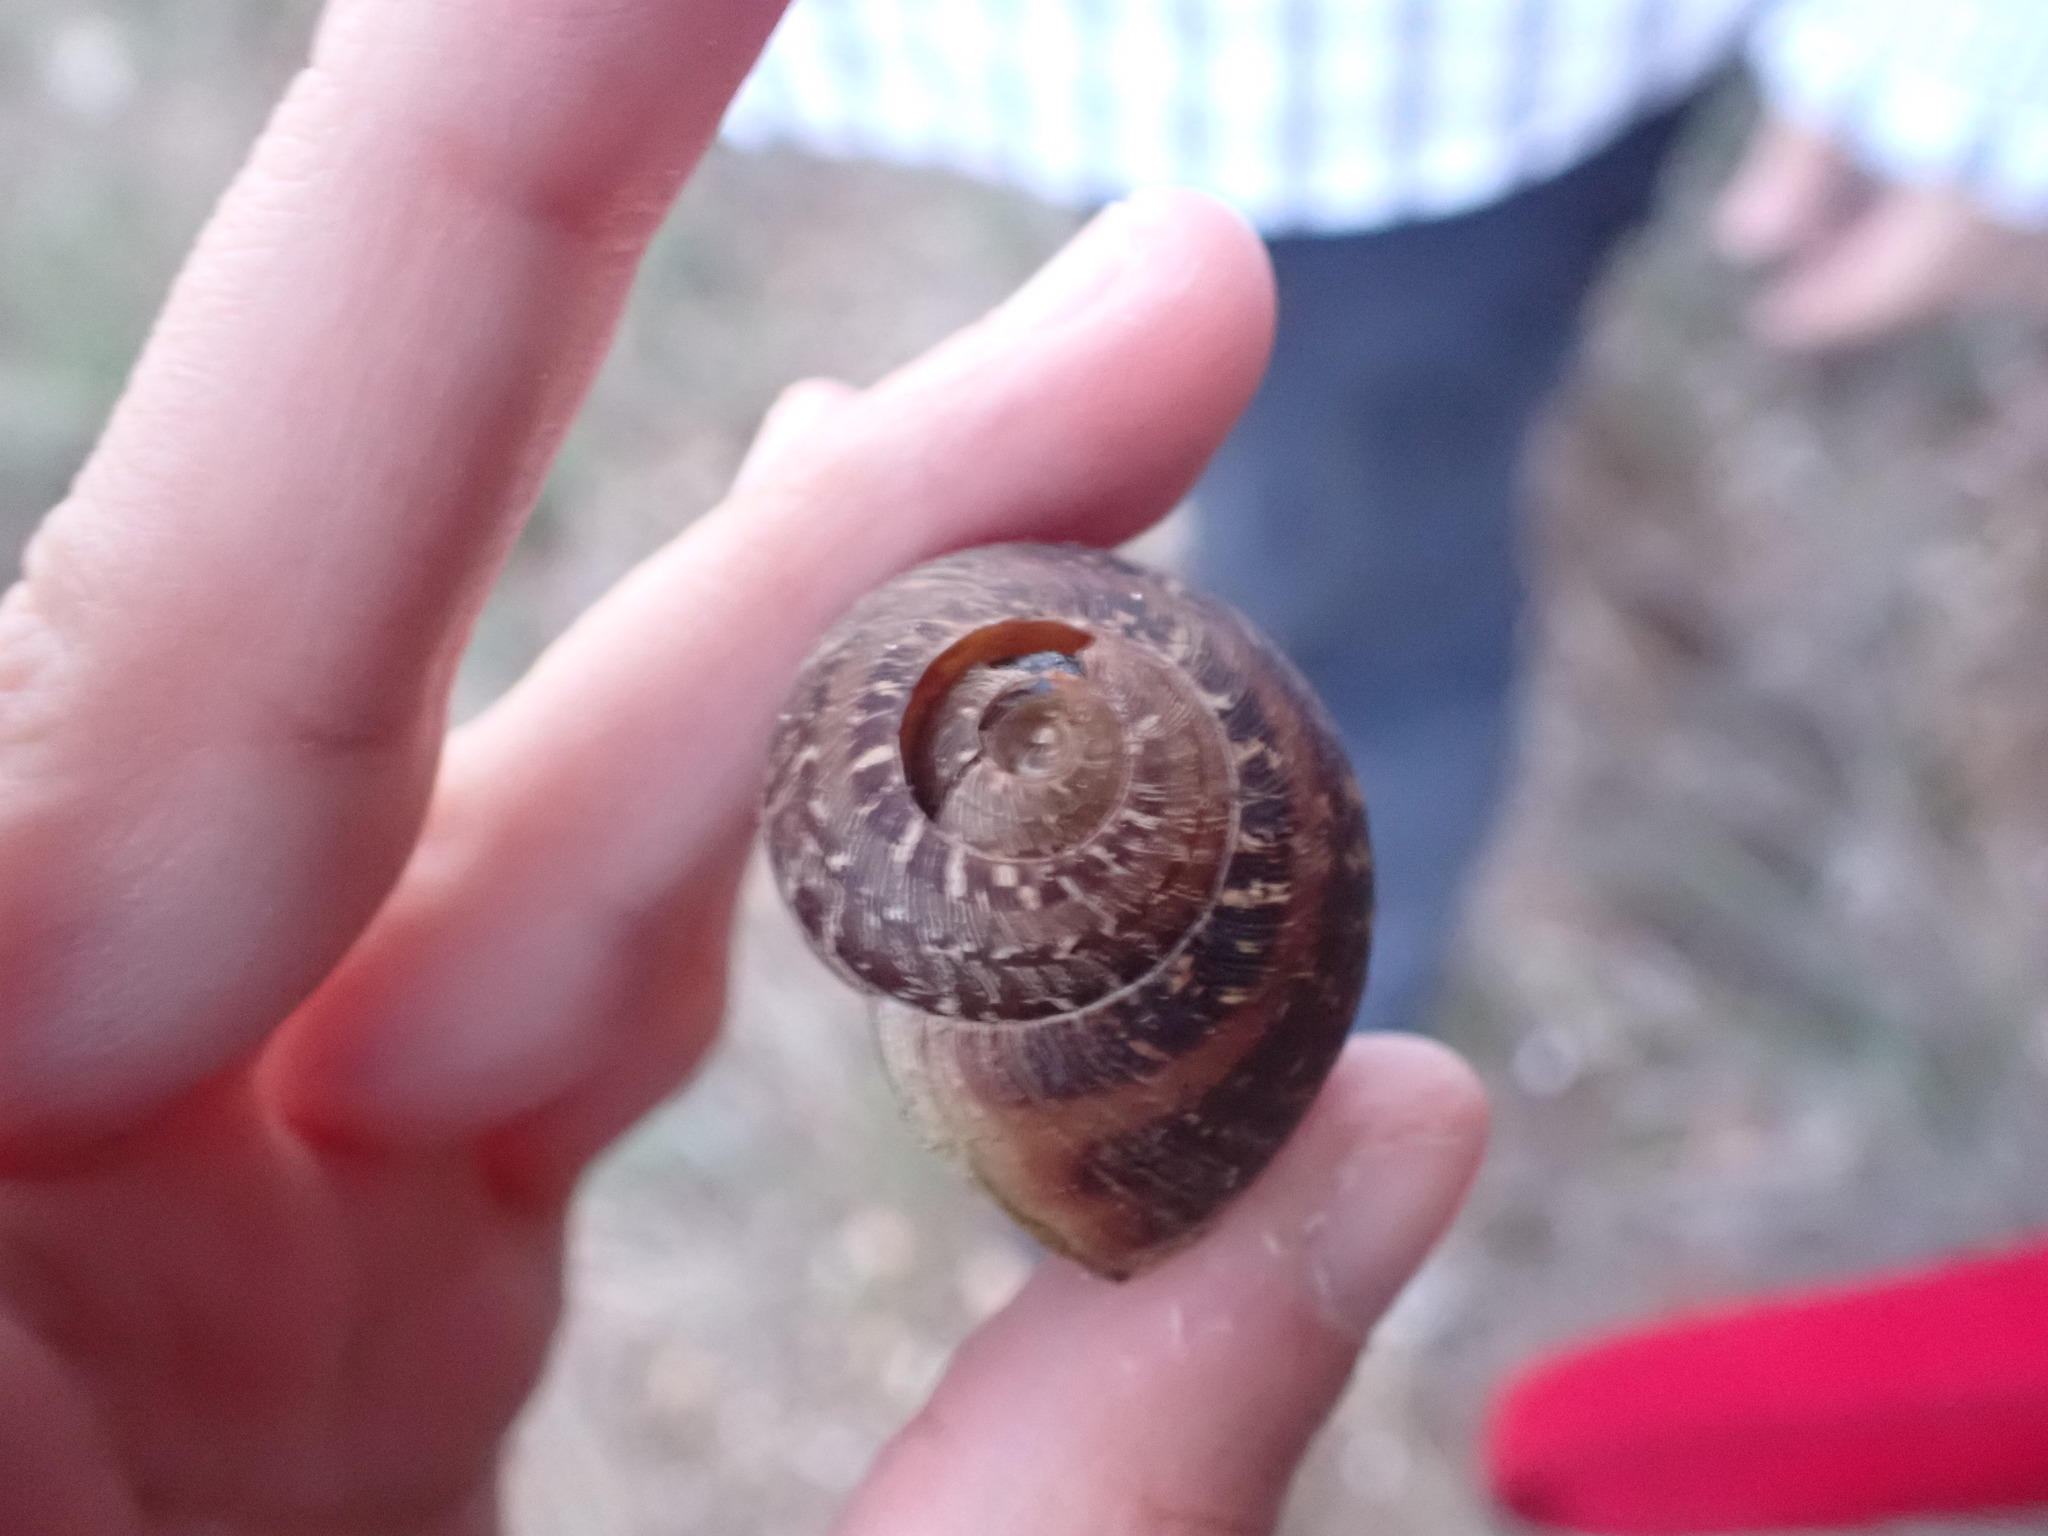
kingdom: Animalia
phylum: Mollusca
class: Gastropoda
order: Stylommatophora
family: Helicidae
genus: Cornu
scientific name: Cornu aspersum
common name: Brown garden snail
